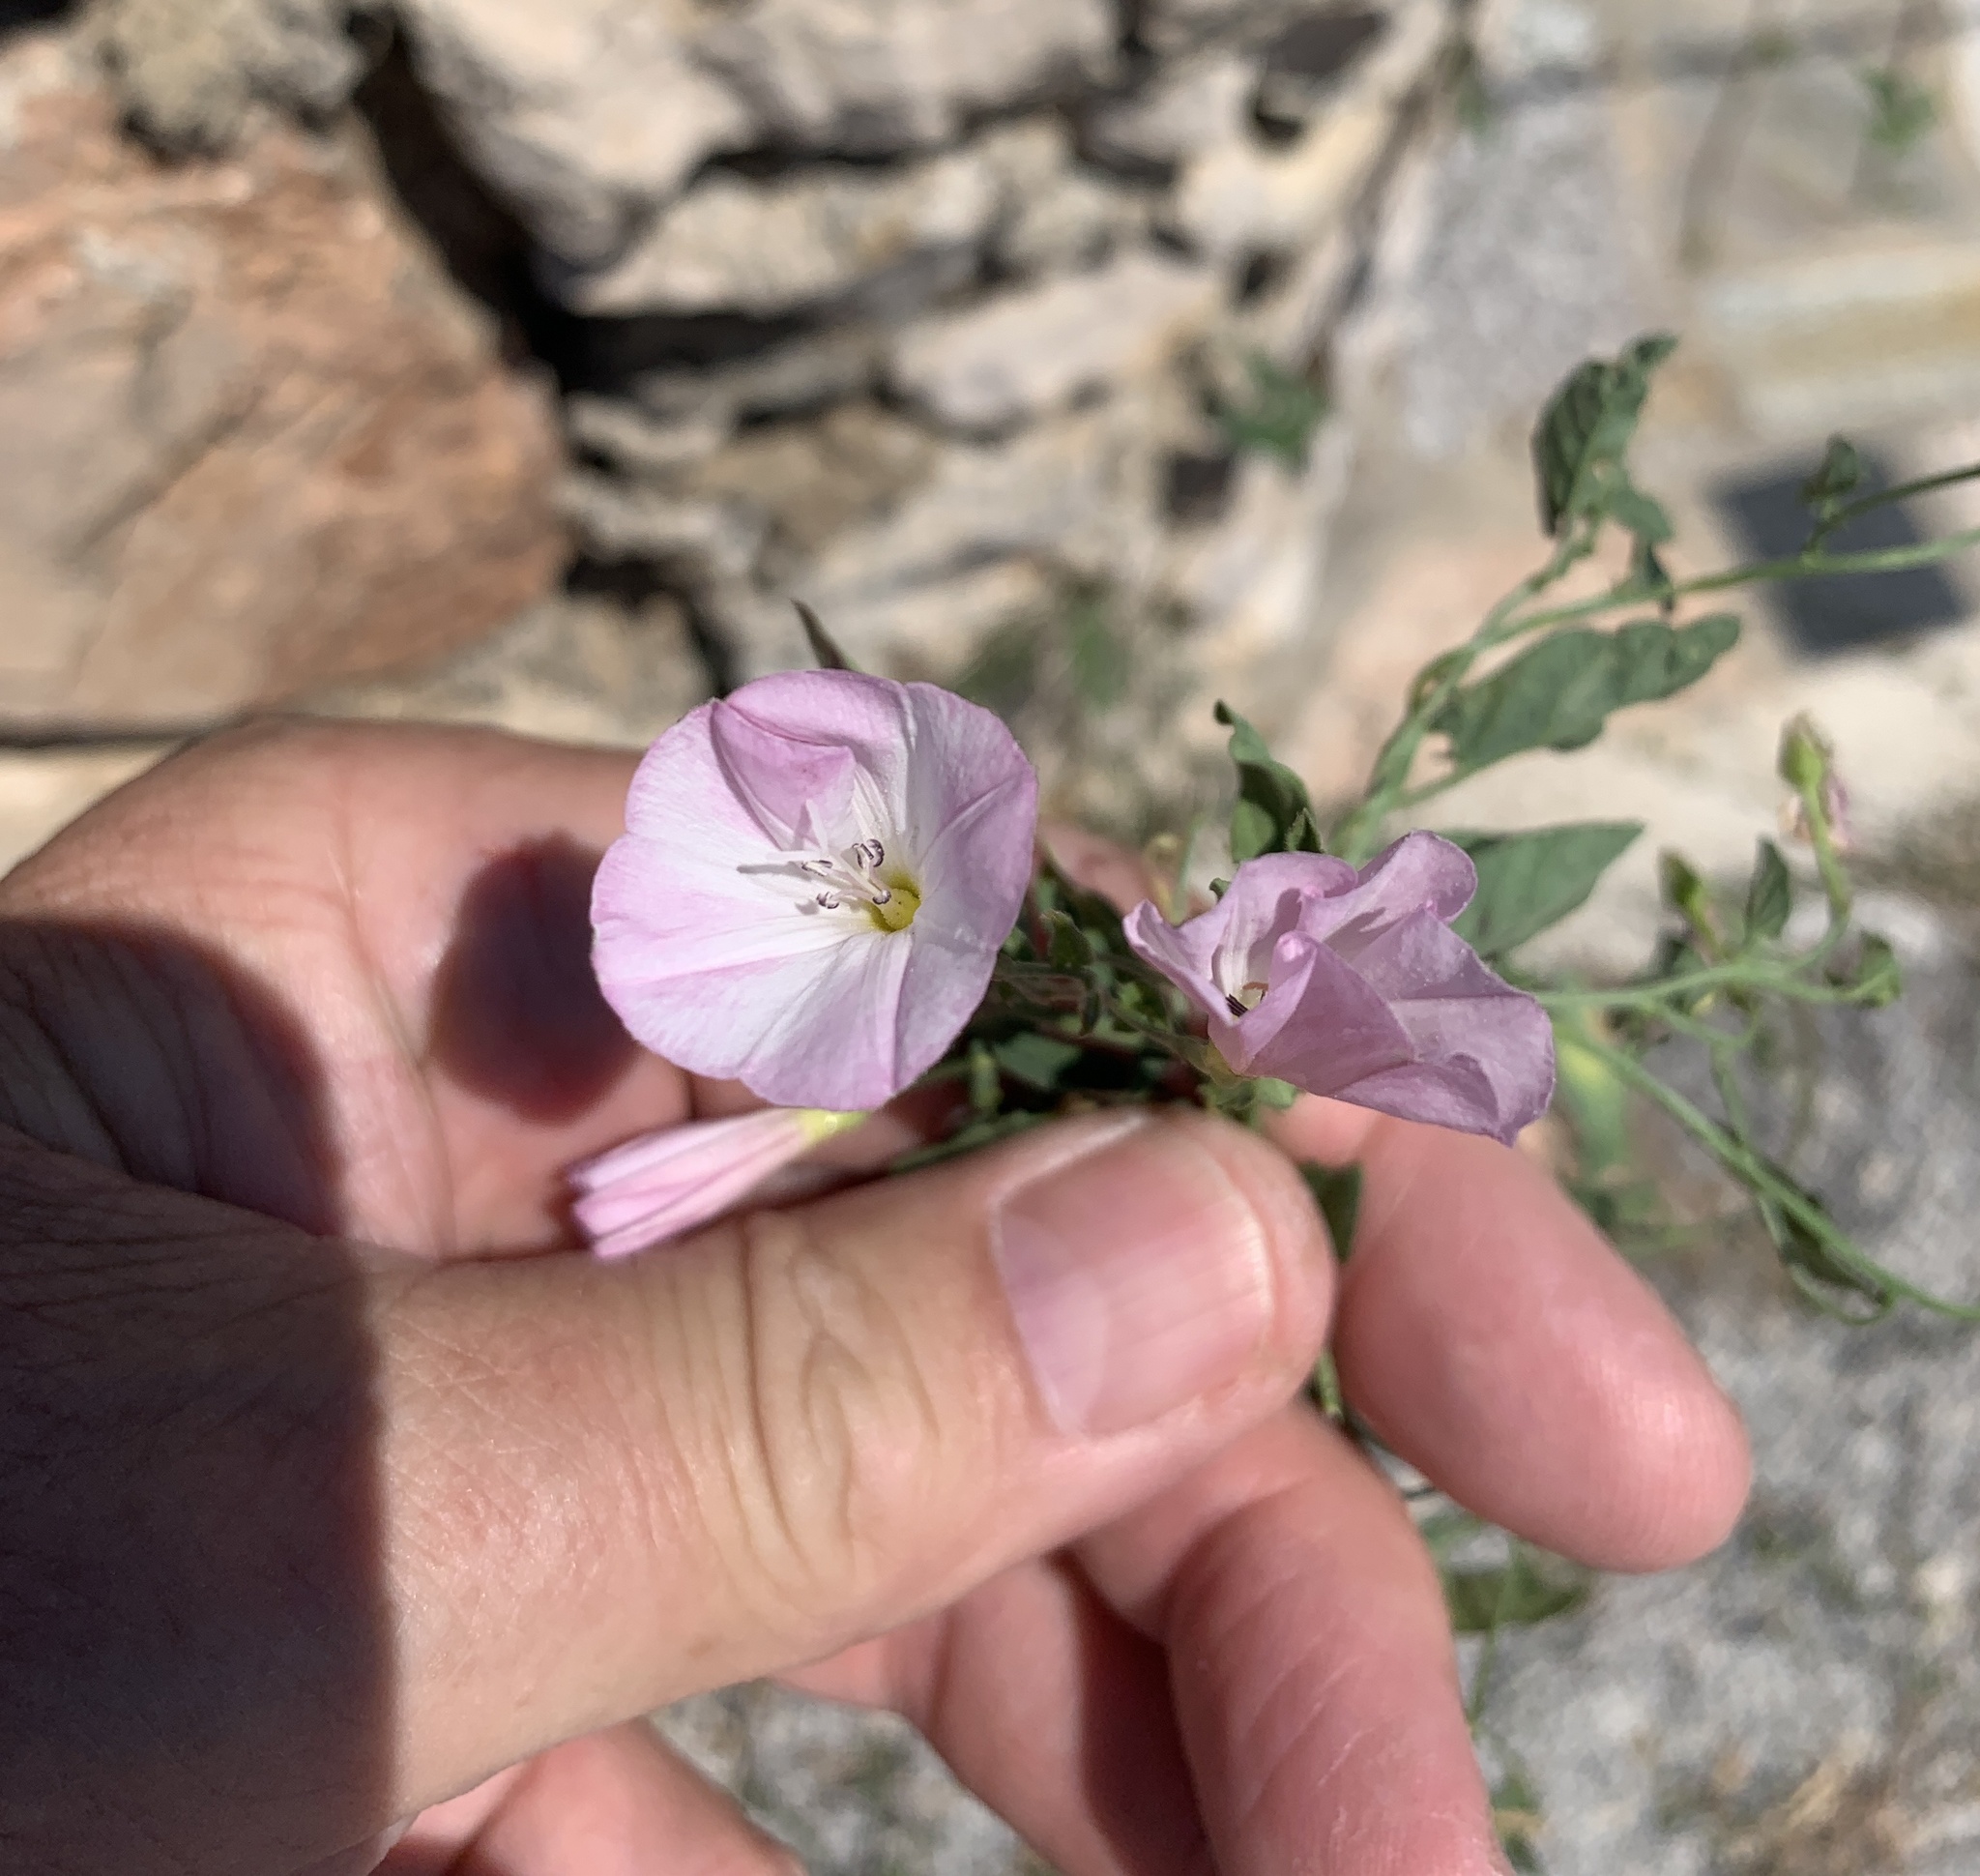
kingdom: Plantae
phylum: Tracheophyta
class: Magnoliopsida
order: Solanales
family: Convolvulaceae
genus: Convolvulus
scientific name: Convolvulus arvensis
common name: Field bindweed
